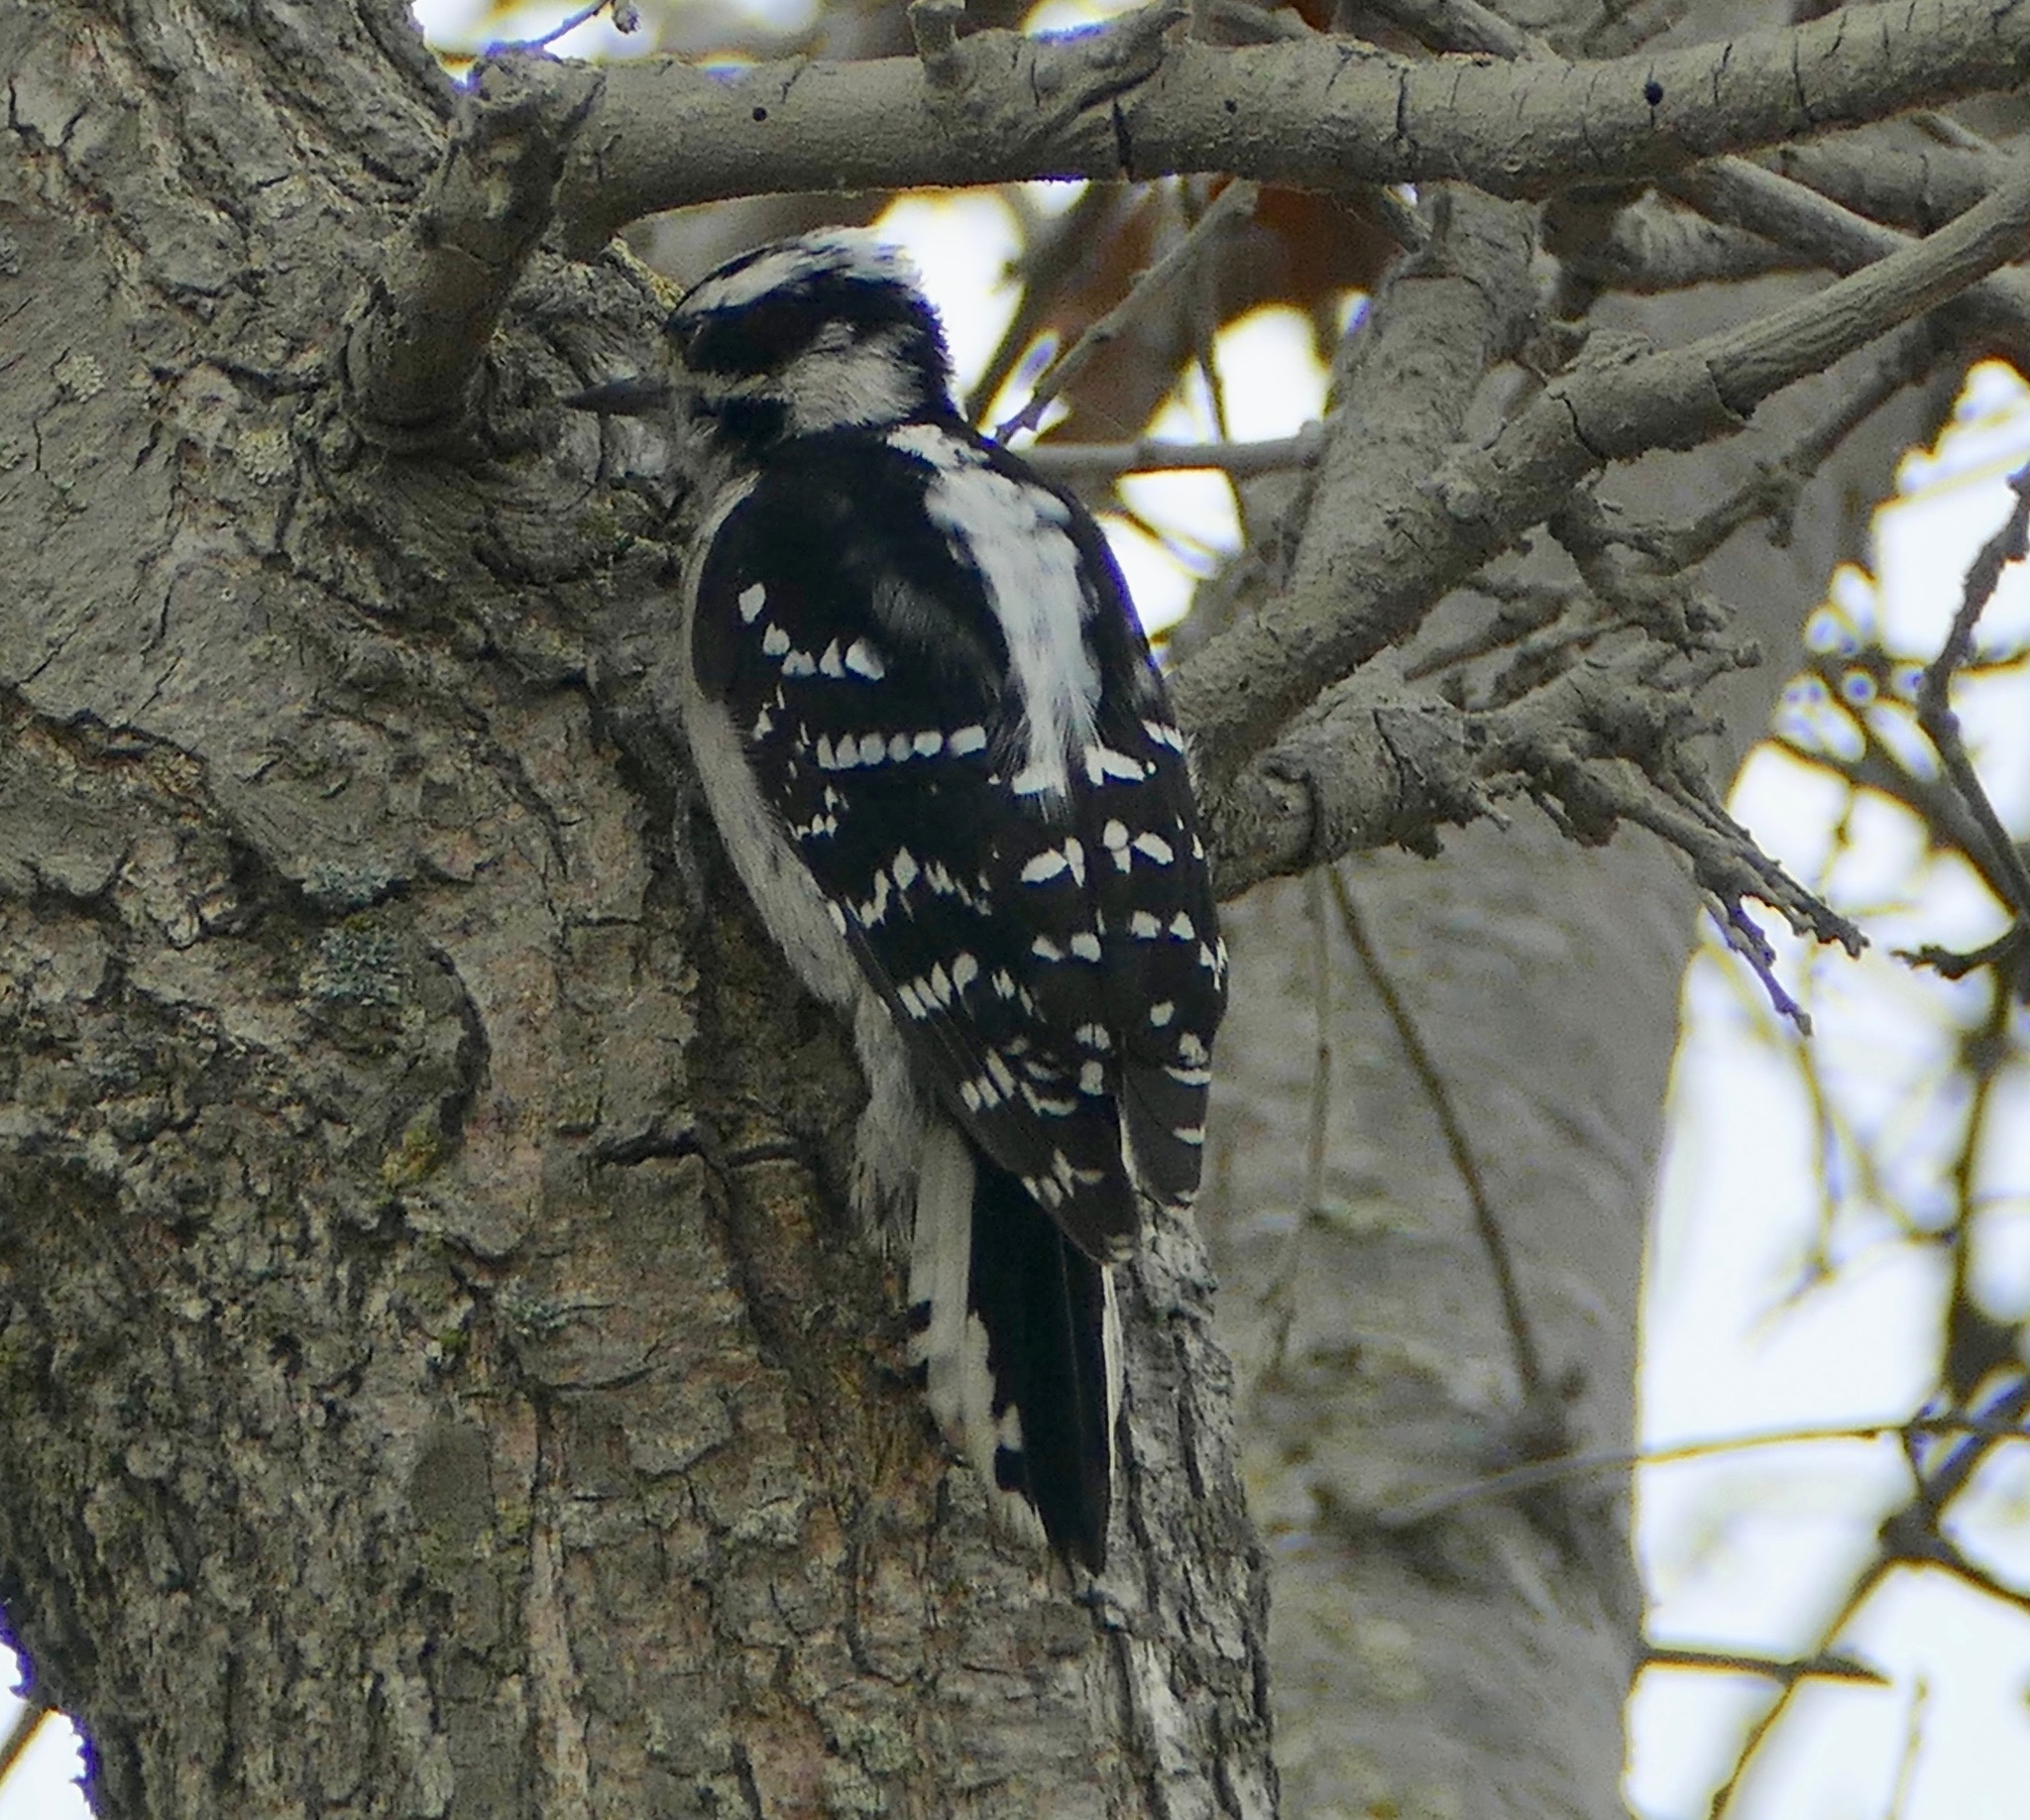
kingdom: Animalia
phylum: Chordata
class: Aves
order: Piciformes
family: Picidae
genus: Dryobates
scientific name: Dryobates pubescens
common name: Downy woodpecker
